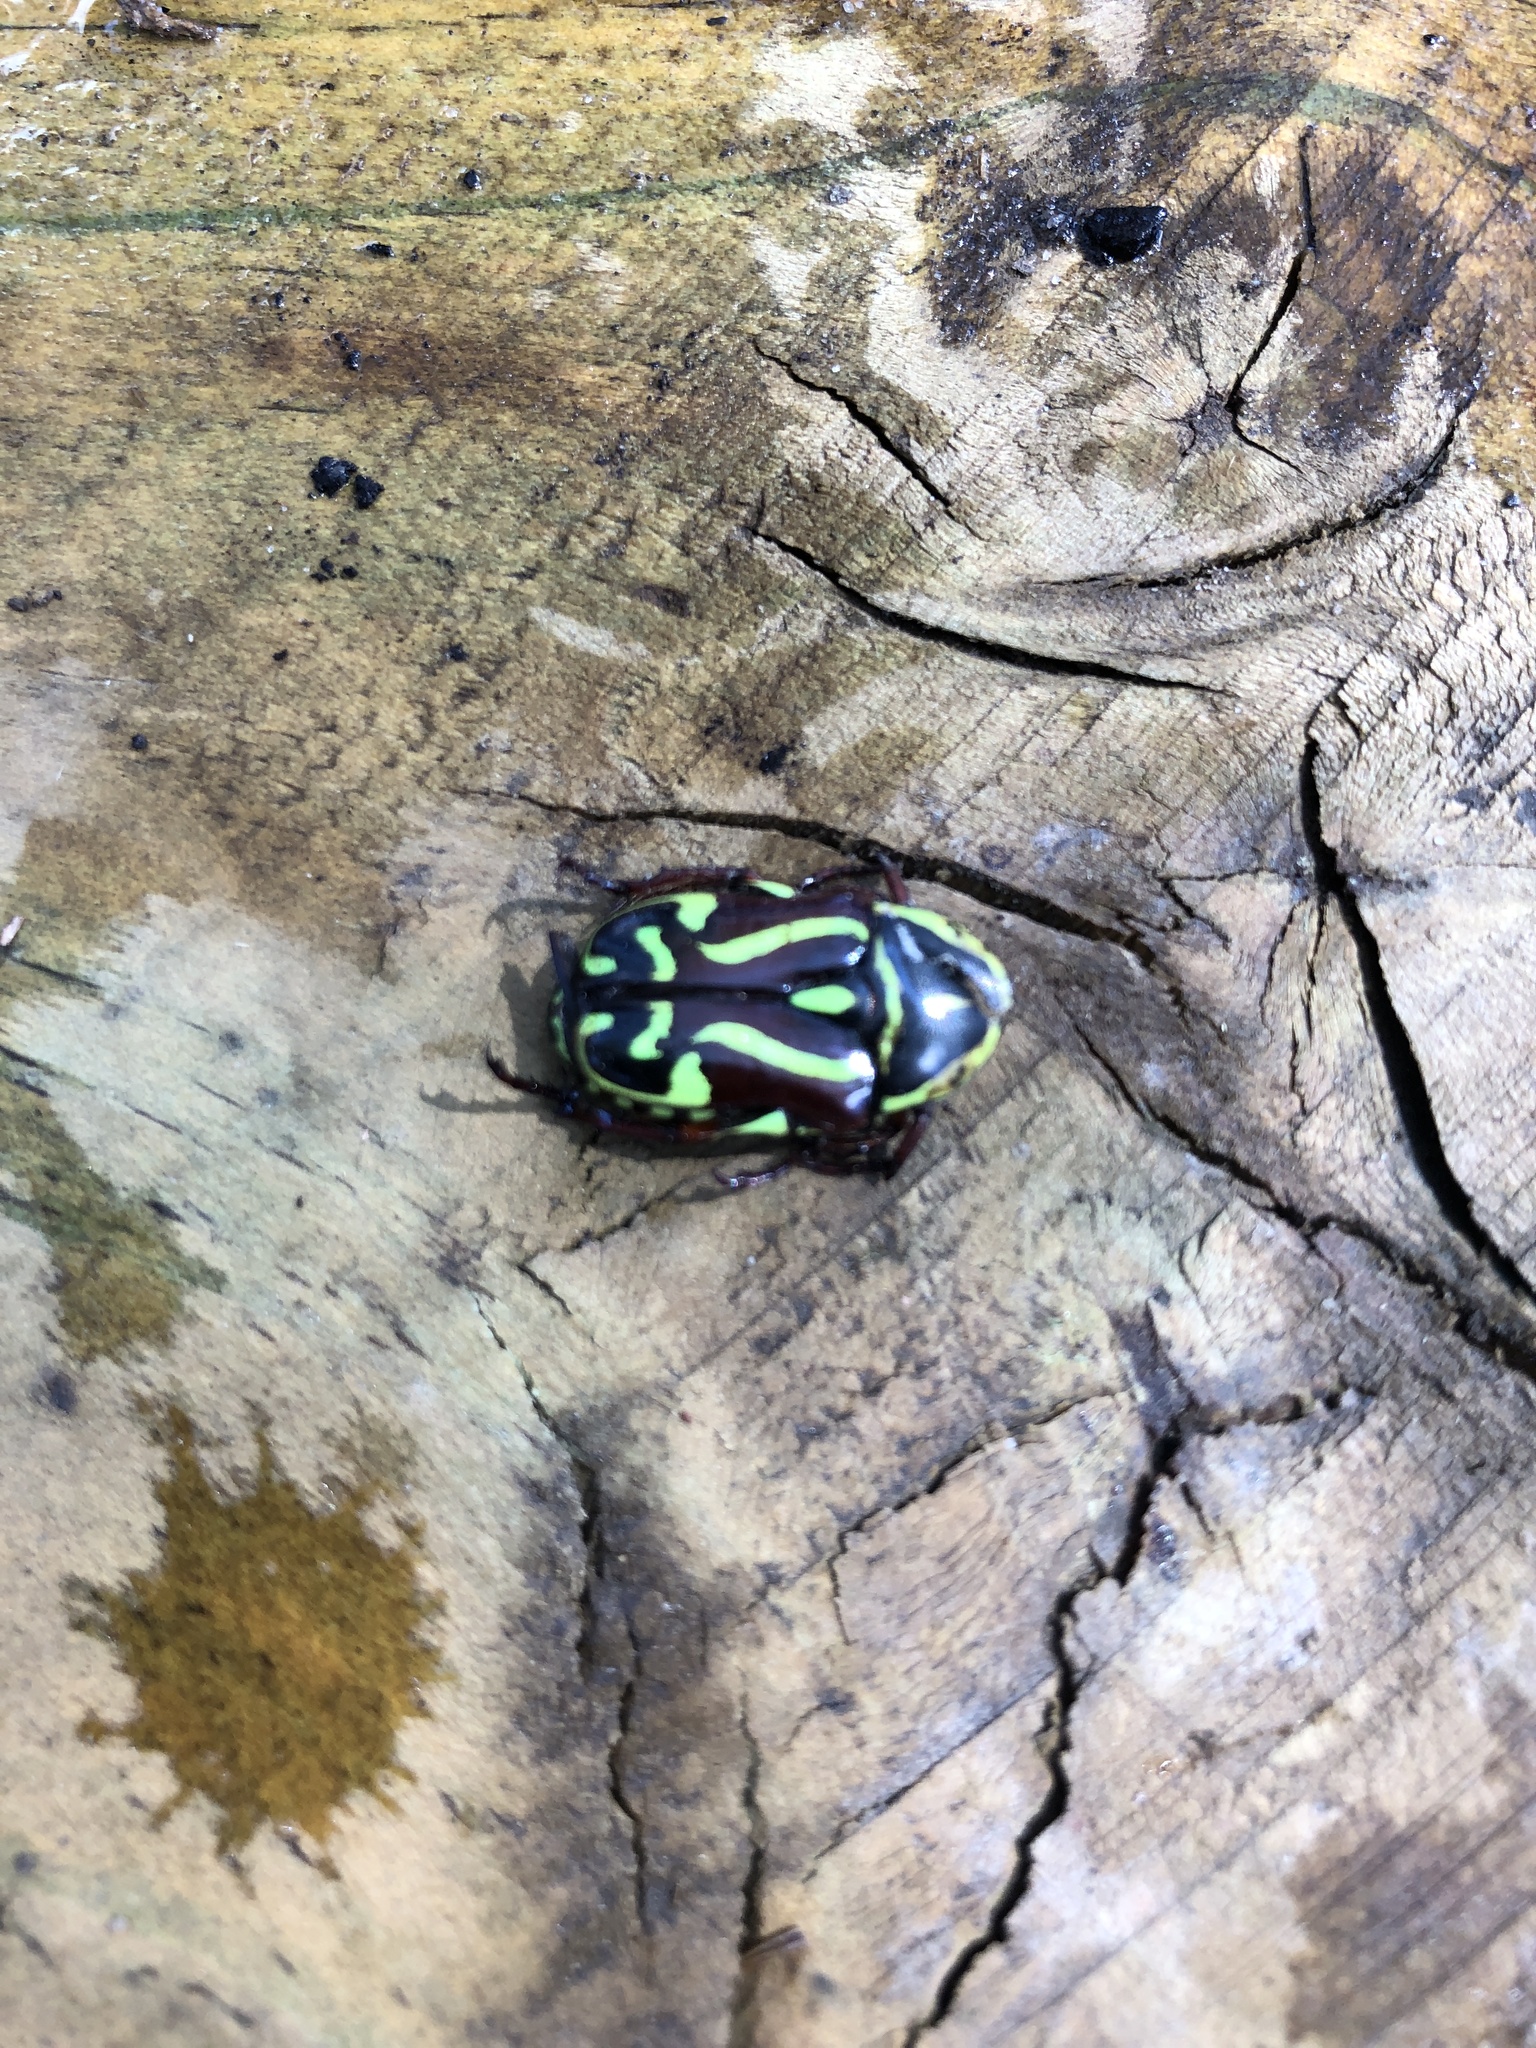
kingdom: Animalia
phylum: Arthropoda
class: Insecta
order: Coleoptera
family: Scarabaeidae
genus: Eupoecila
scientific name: Eupoecila australasiae
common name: Fiddler beetle
